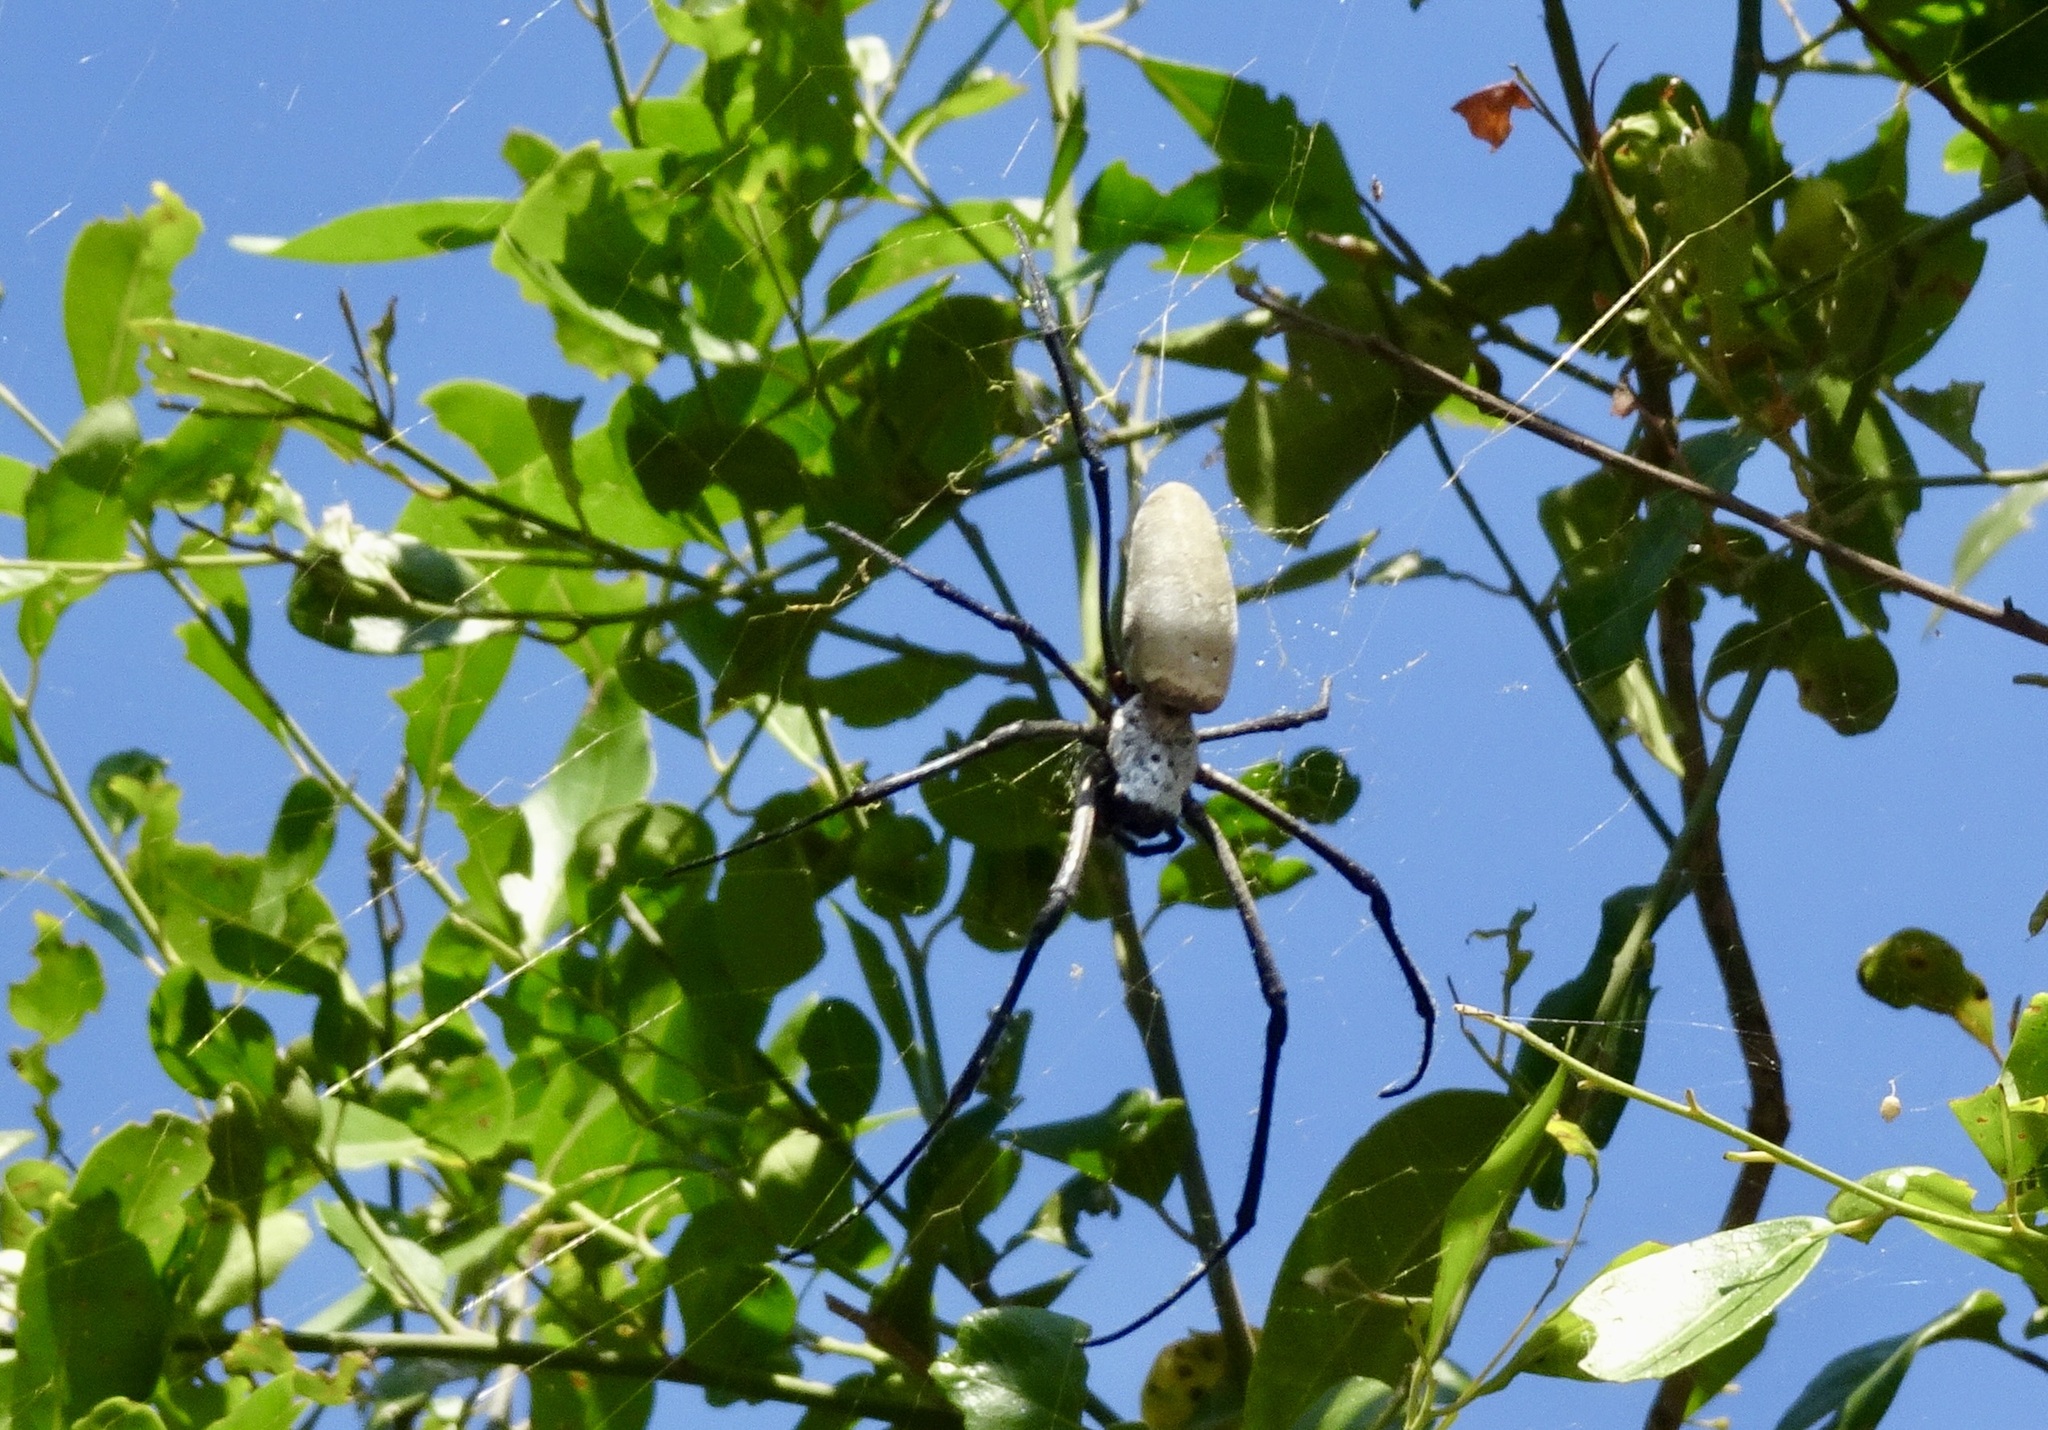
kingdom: Animalia
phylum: Arthropoda
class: Arachnida
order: Araneae
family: Araneidae
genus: Nephila
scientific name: Nephila vitiana
